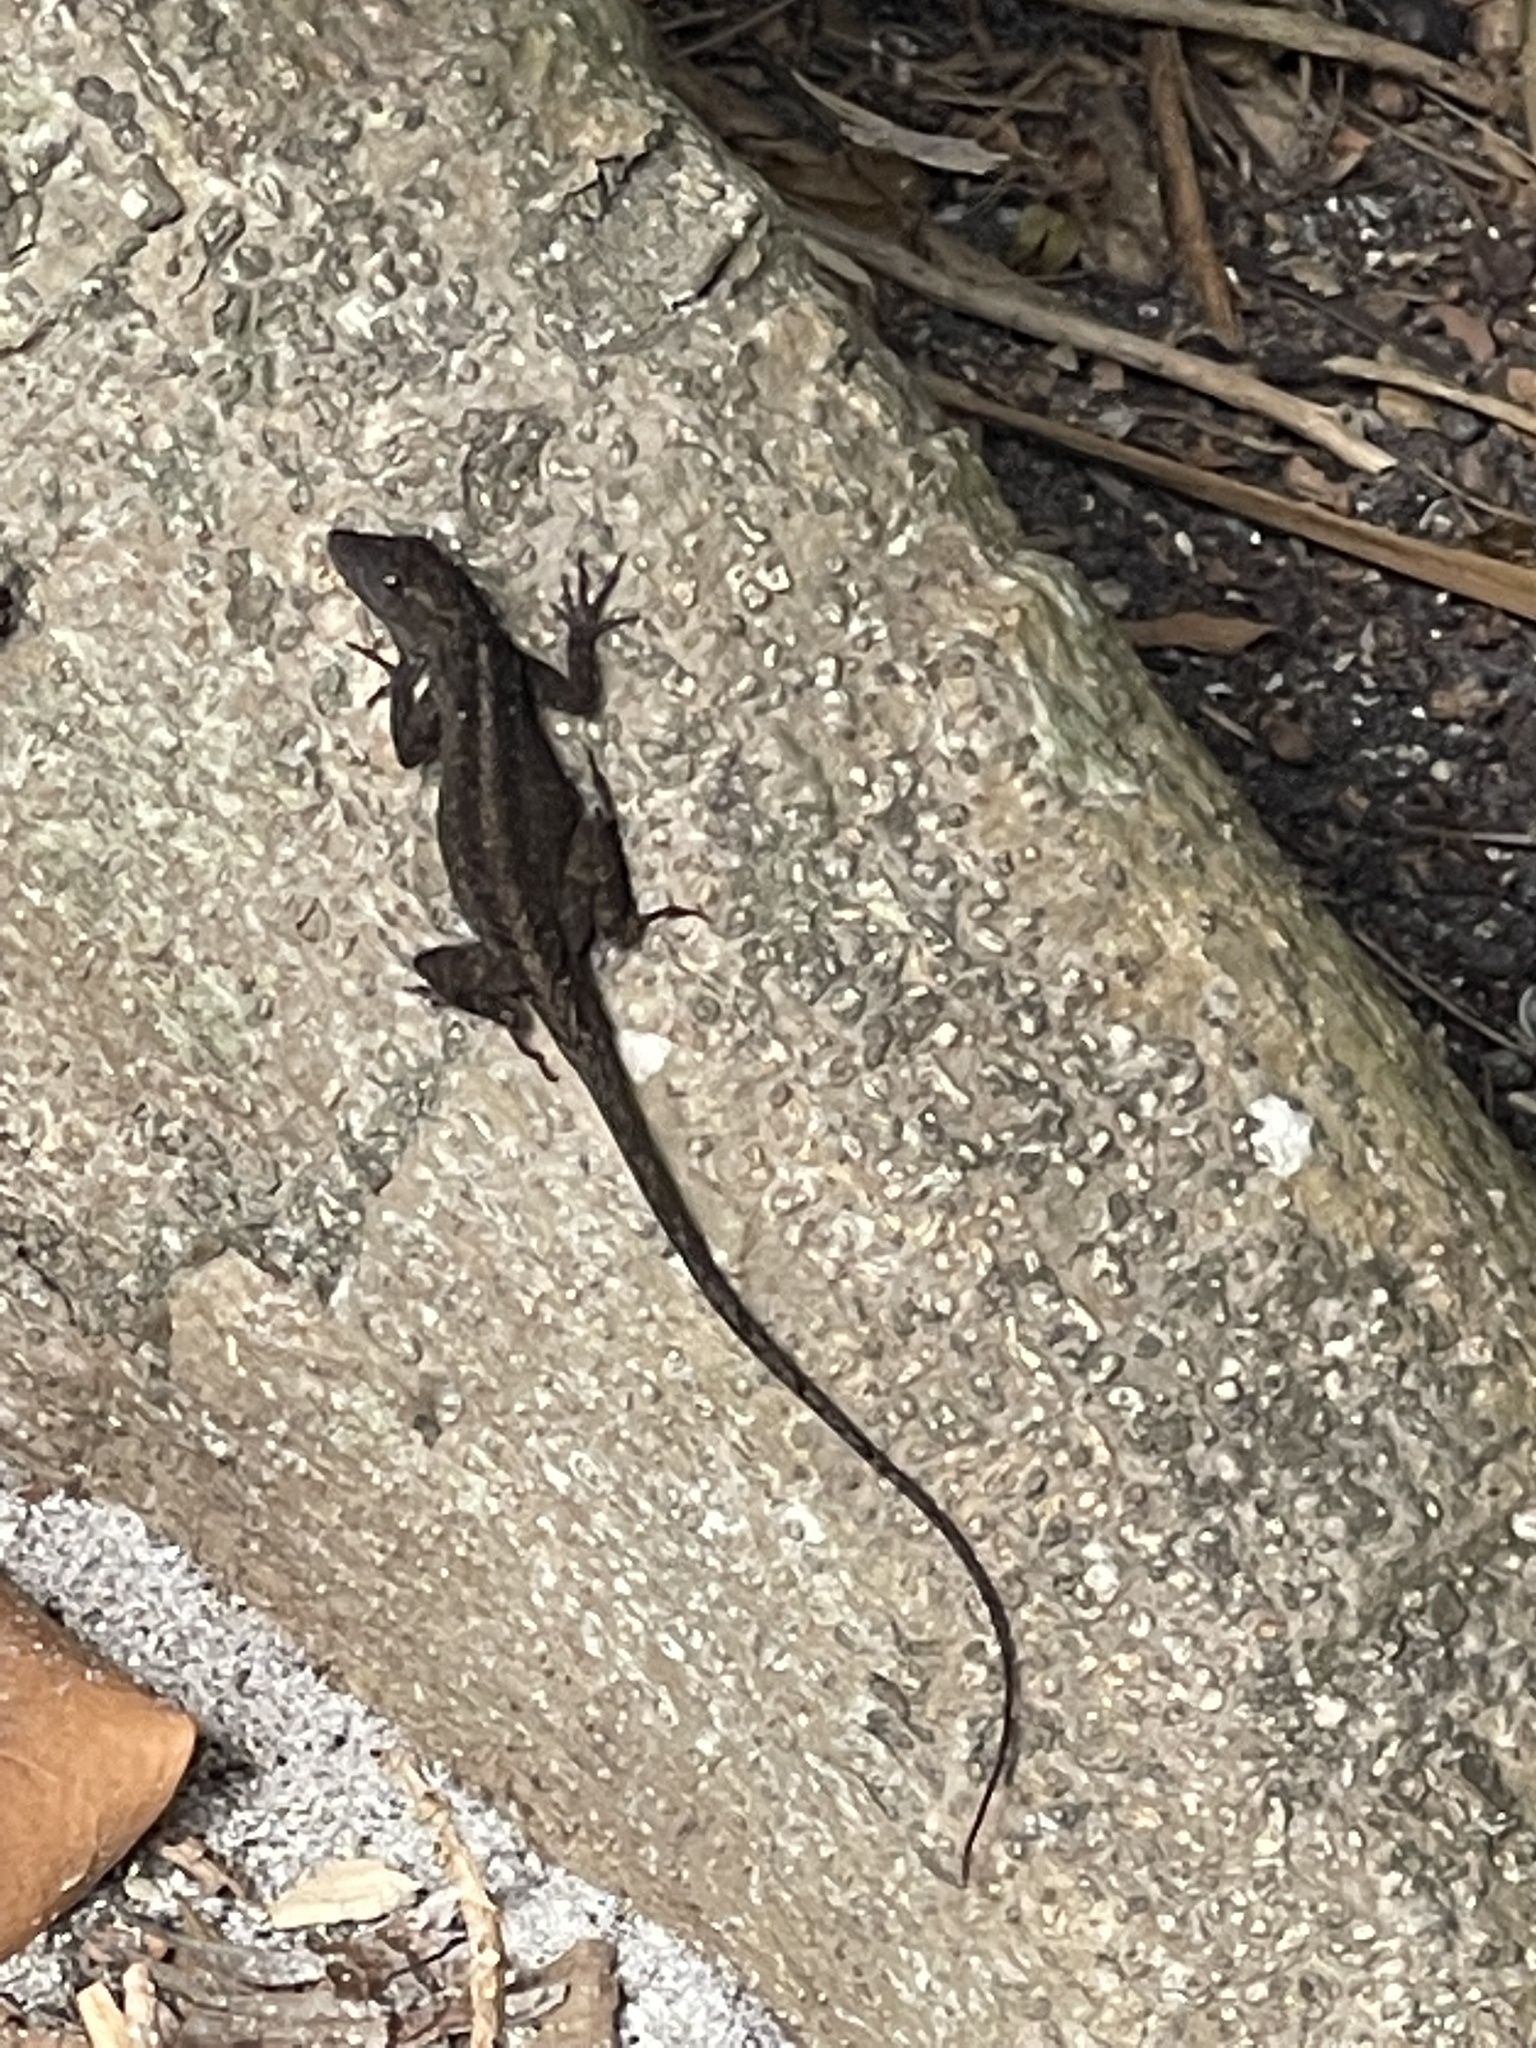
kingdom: Animalia
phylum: Chordata
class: Squamata
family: Dactyloidae
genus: Anolis
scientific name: Anolis sagrei
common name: Brown anole
